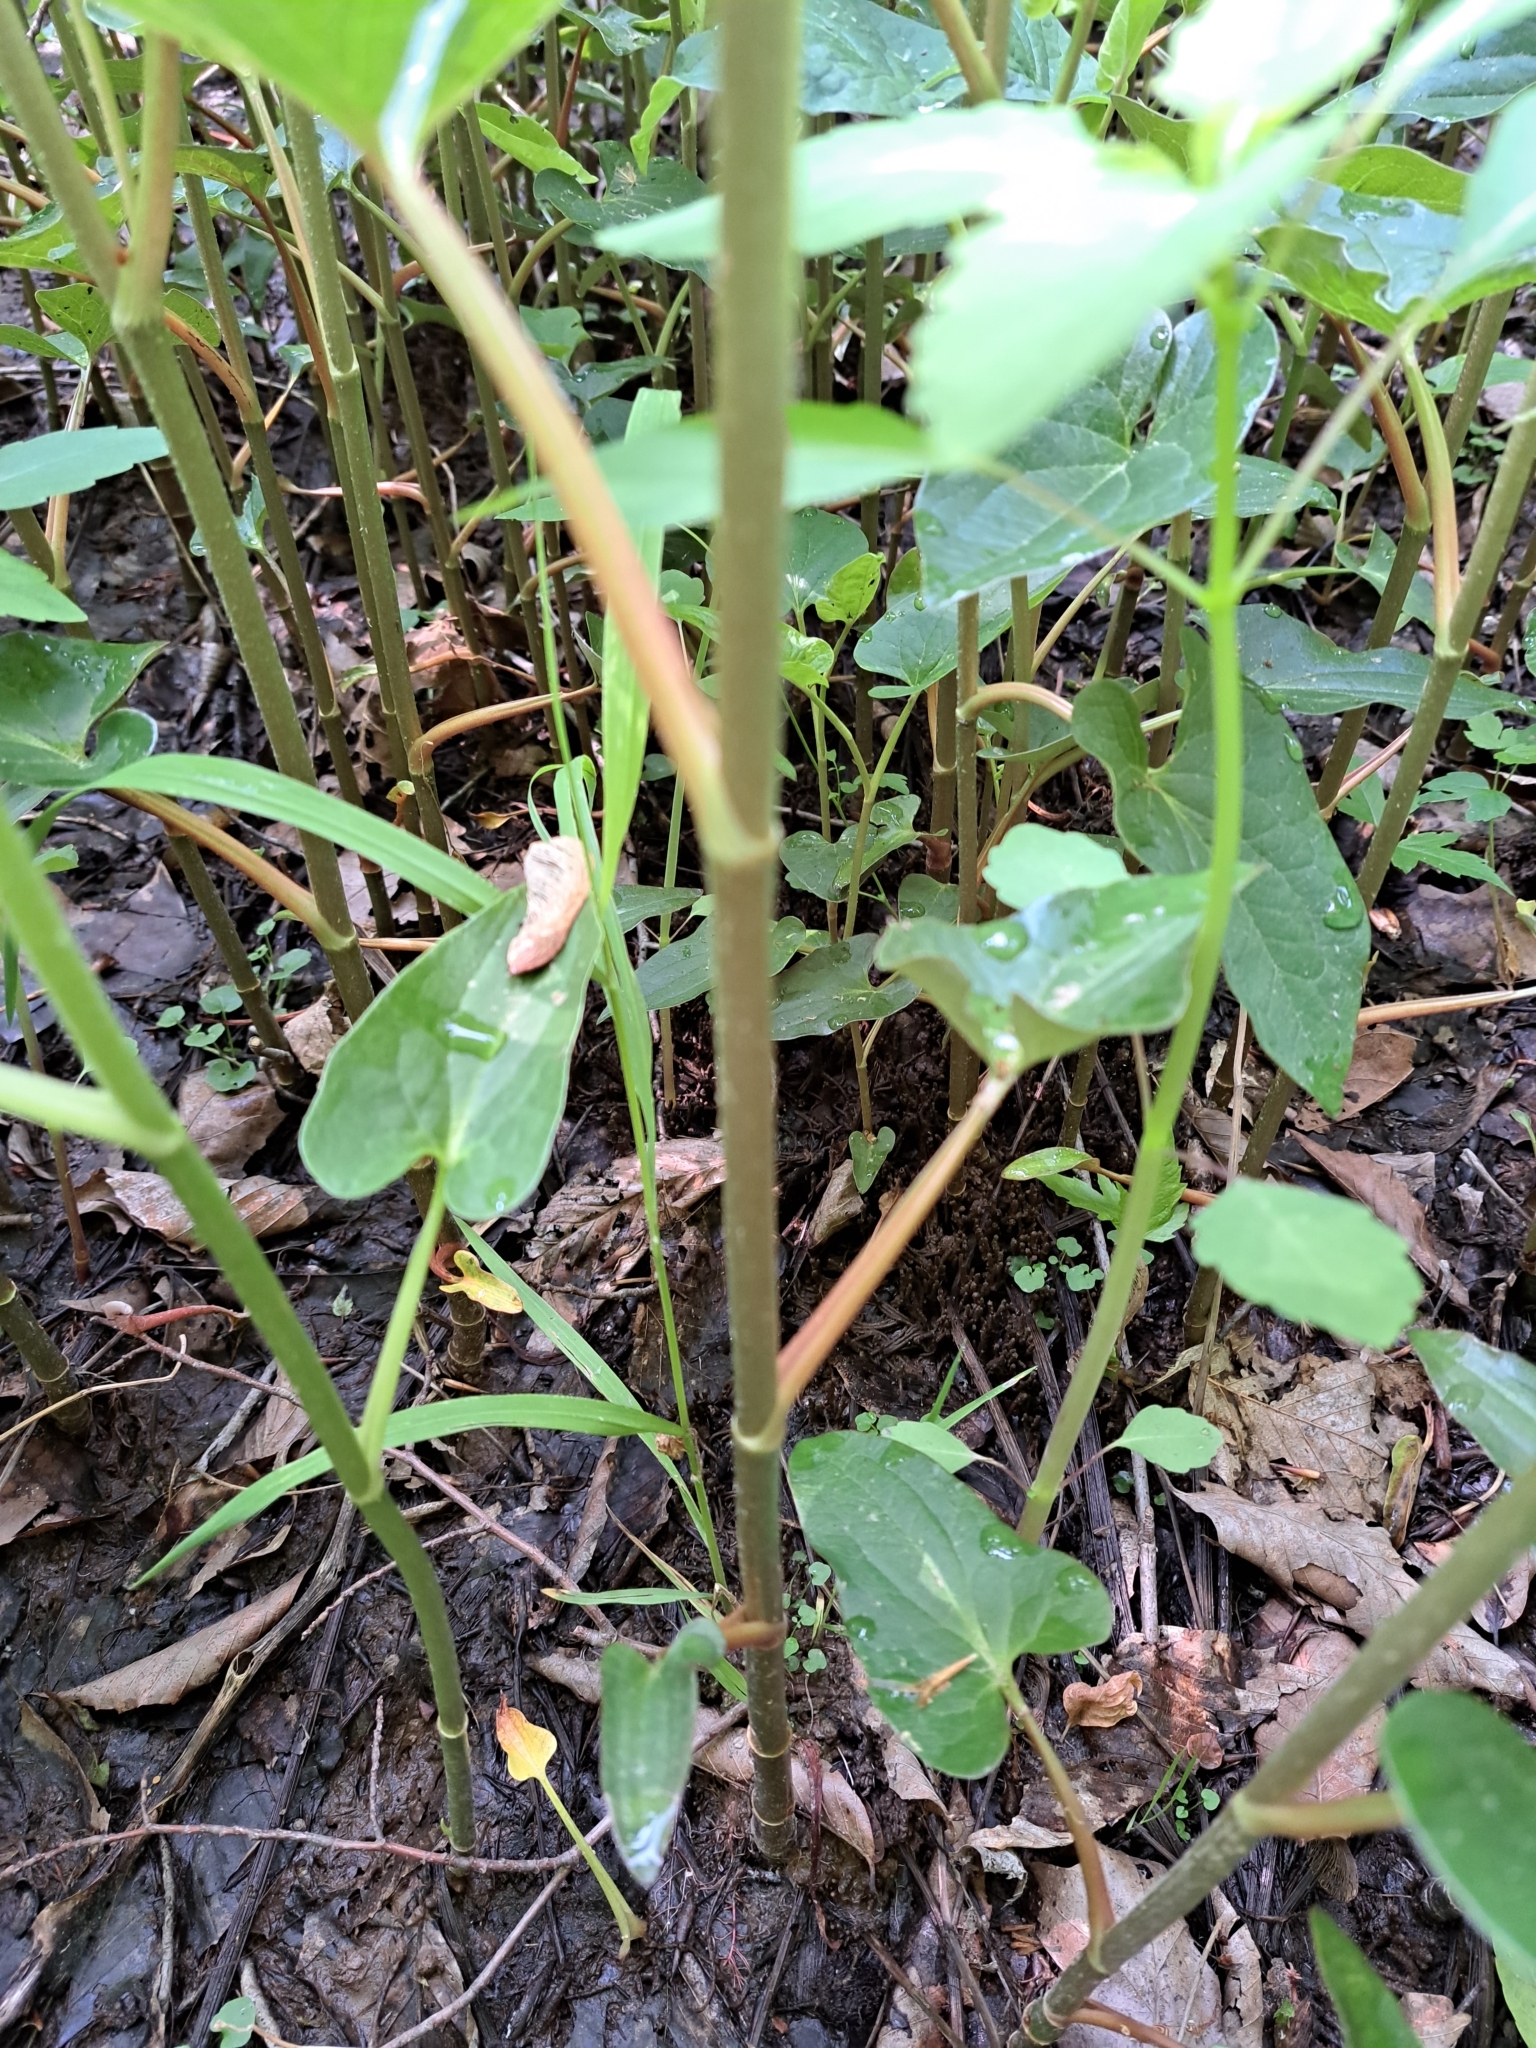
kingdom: Plantae
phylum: Tracheophyta
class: Magnoliopsida
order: Piperales
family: Saururaceae
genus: Saururus
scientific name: Saururus cernuus
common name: Lizard's-tail
